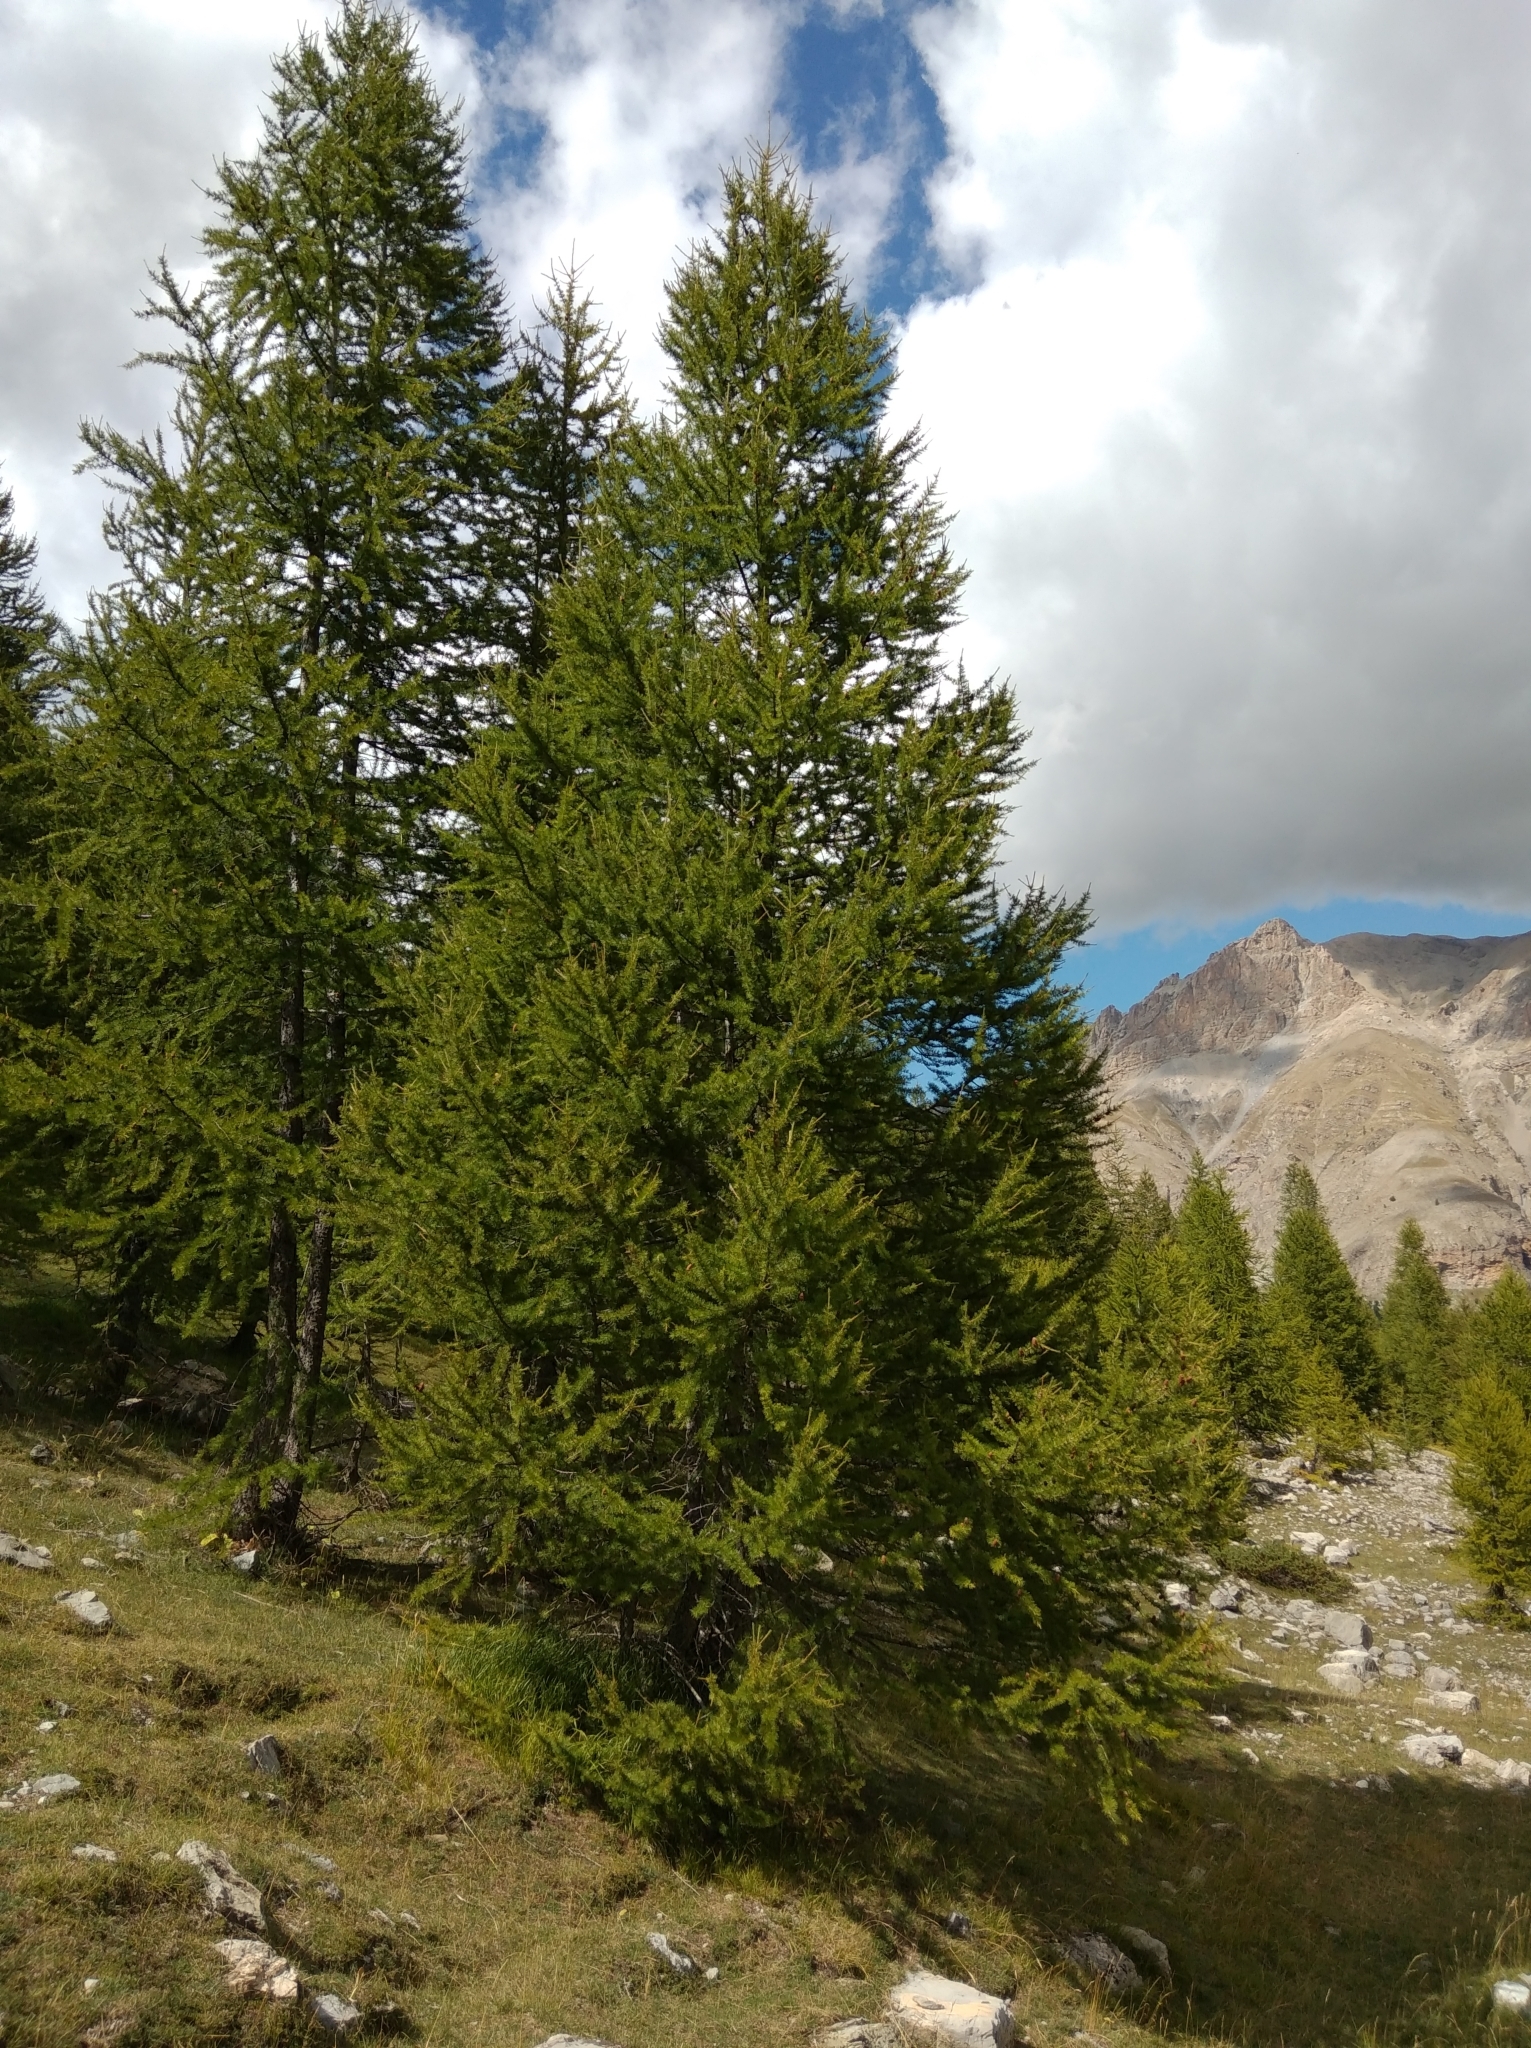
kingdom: Plantae
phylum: Tracheophyta
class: Pinopsida
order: Pinales
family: Pinaceae
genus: Larix
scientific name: Larix decidua
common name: European larch
